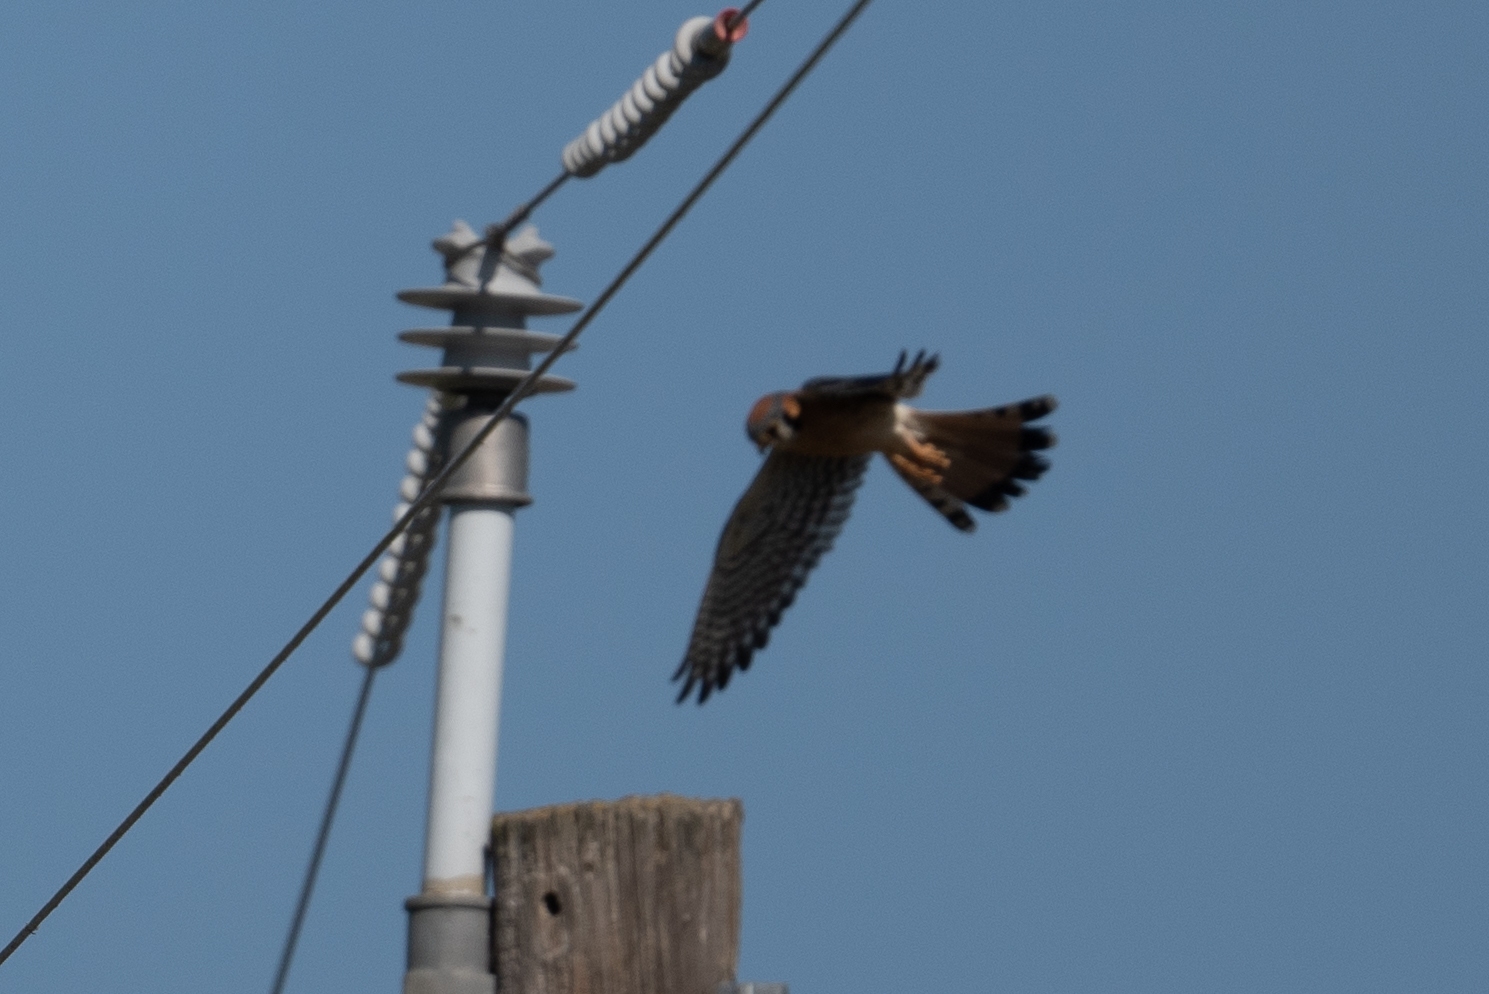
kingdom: Animalia
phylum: Chordata
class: Aves
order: Falconiformes
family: Falconidae
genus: Falco
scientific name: Falco sparverius
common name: American kestrel
